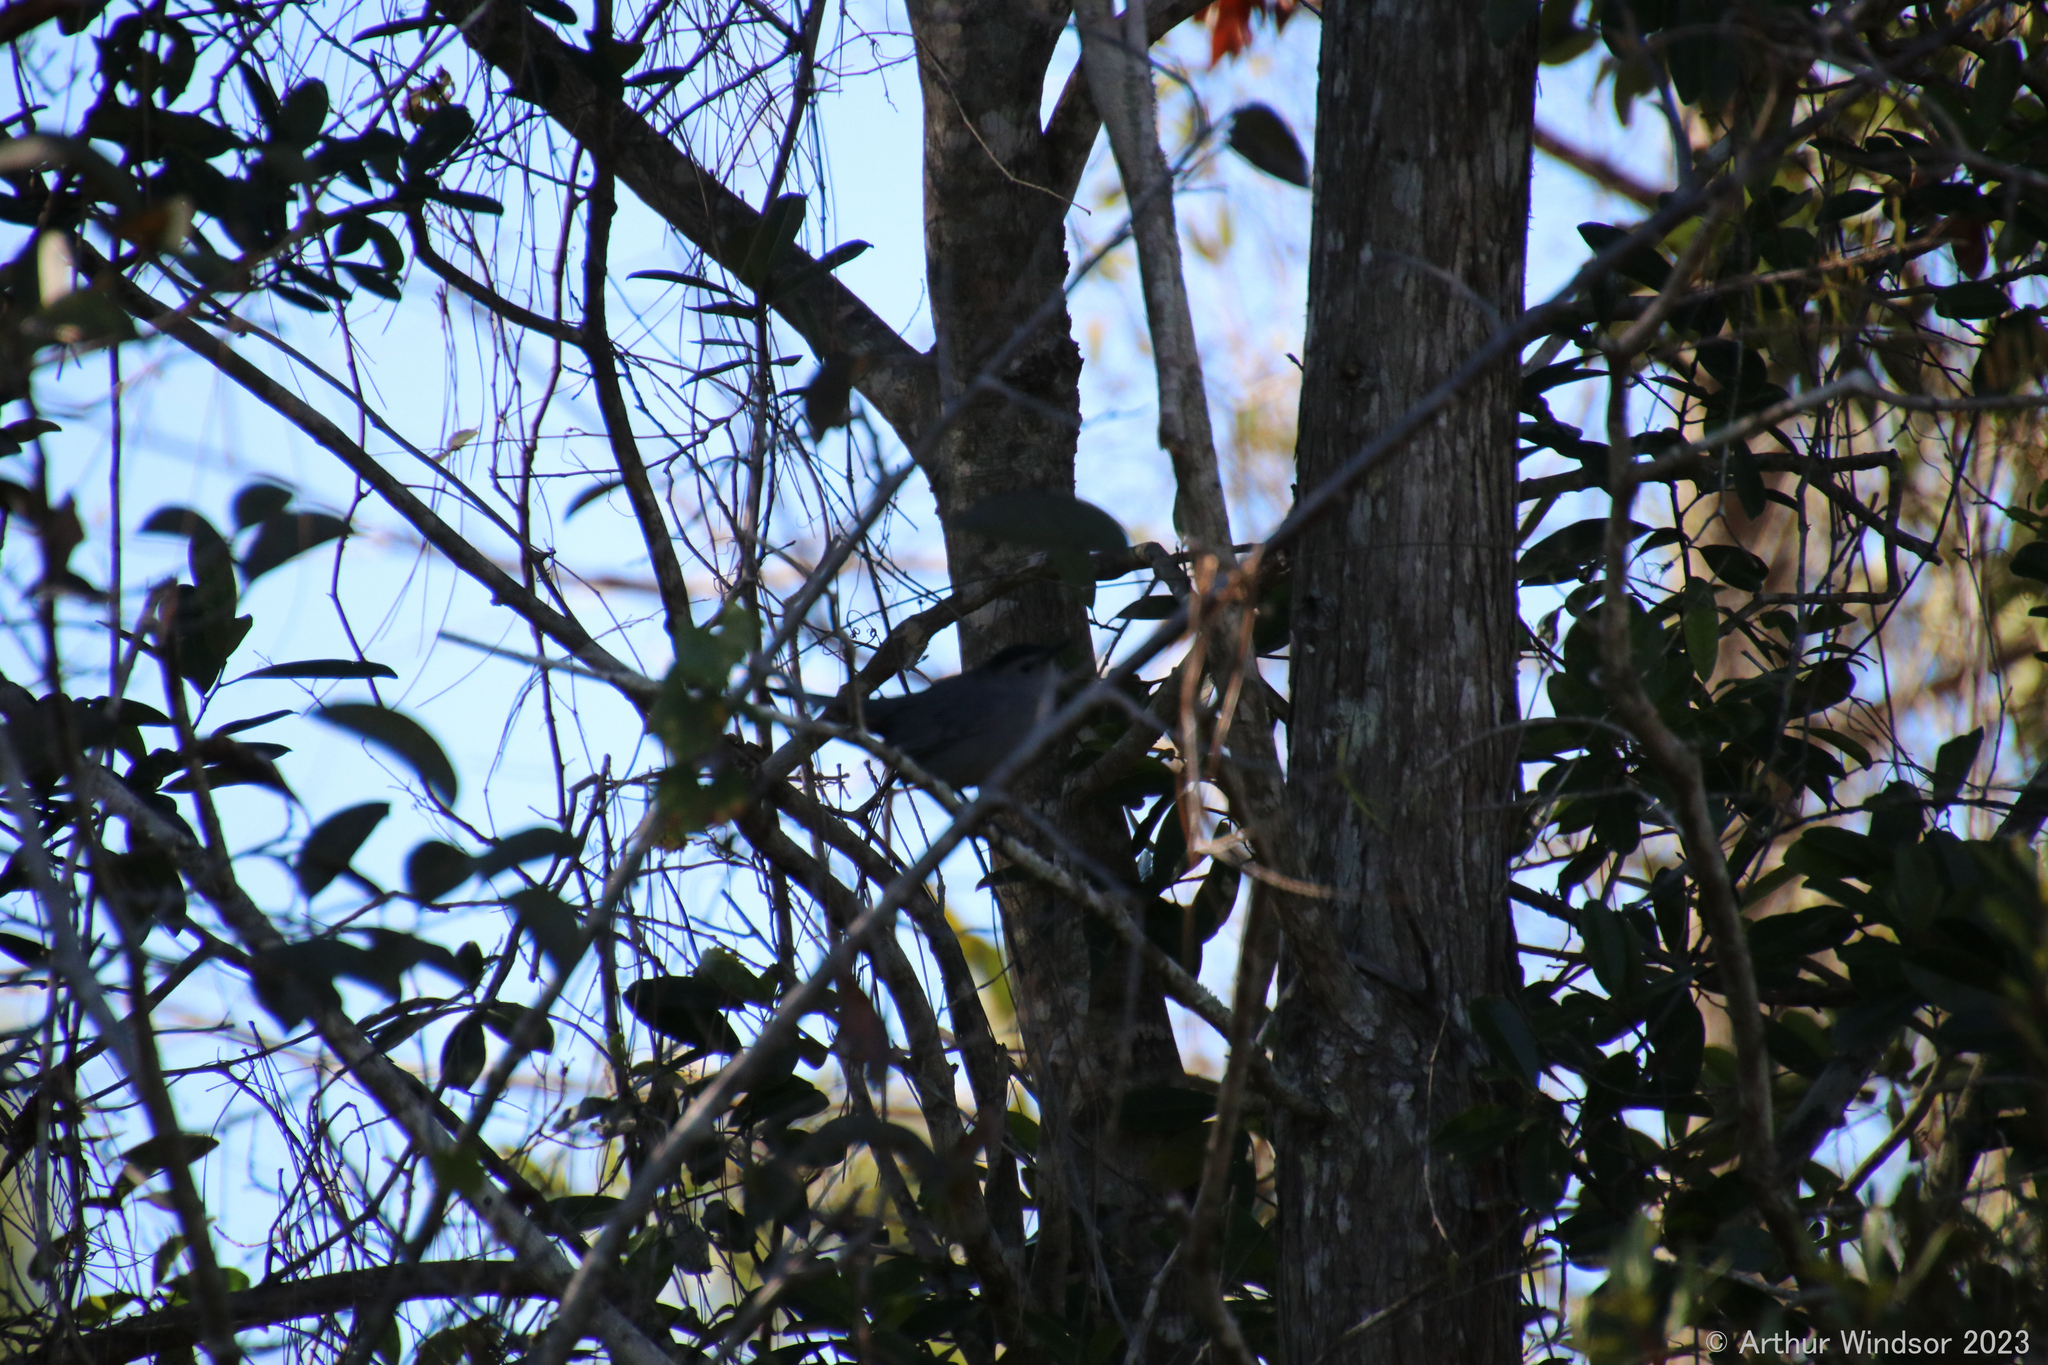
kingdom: Animalia
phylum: Chordata
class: Aves
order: Passeriformes
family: Mimidae
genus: Dumetella
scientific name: Dumetella carolinensis
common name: Gray catbird
